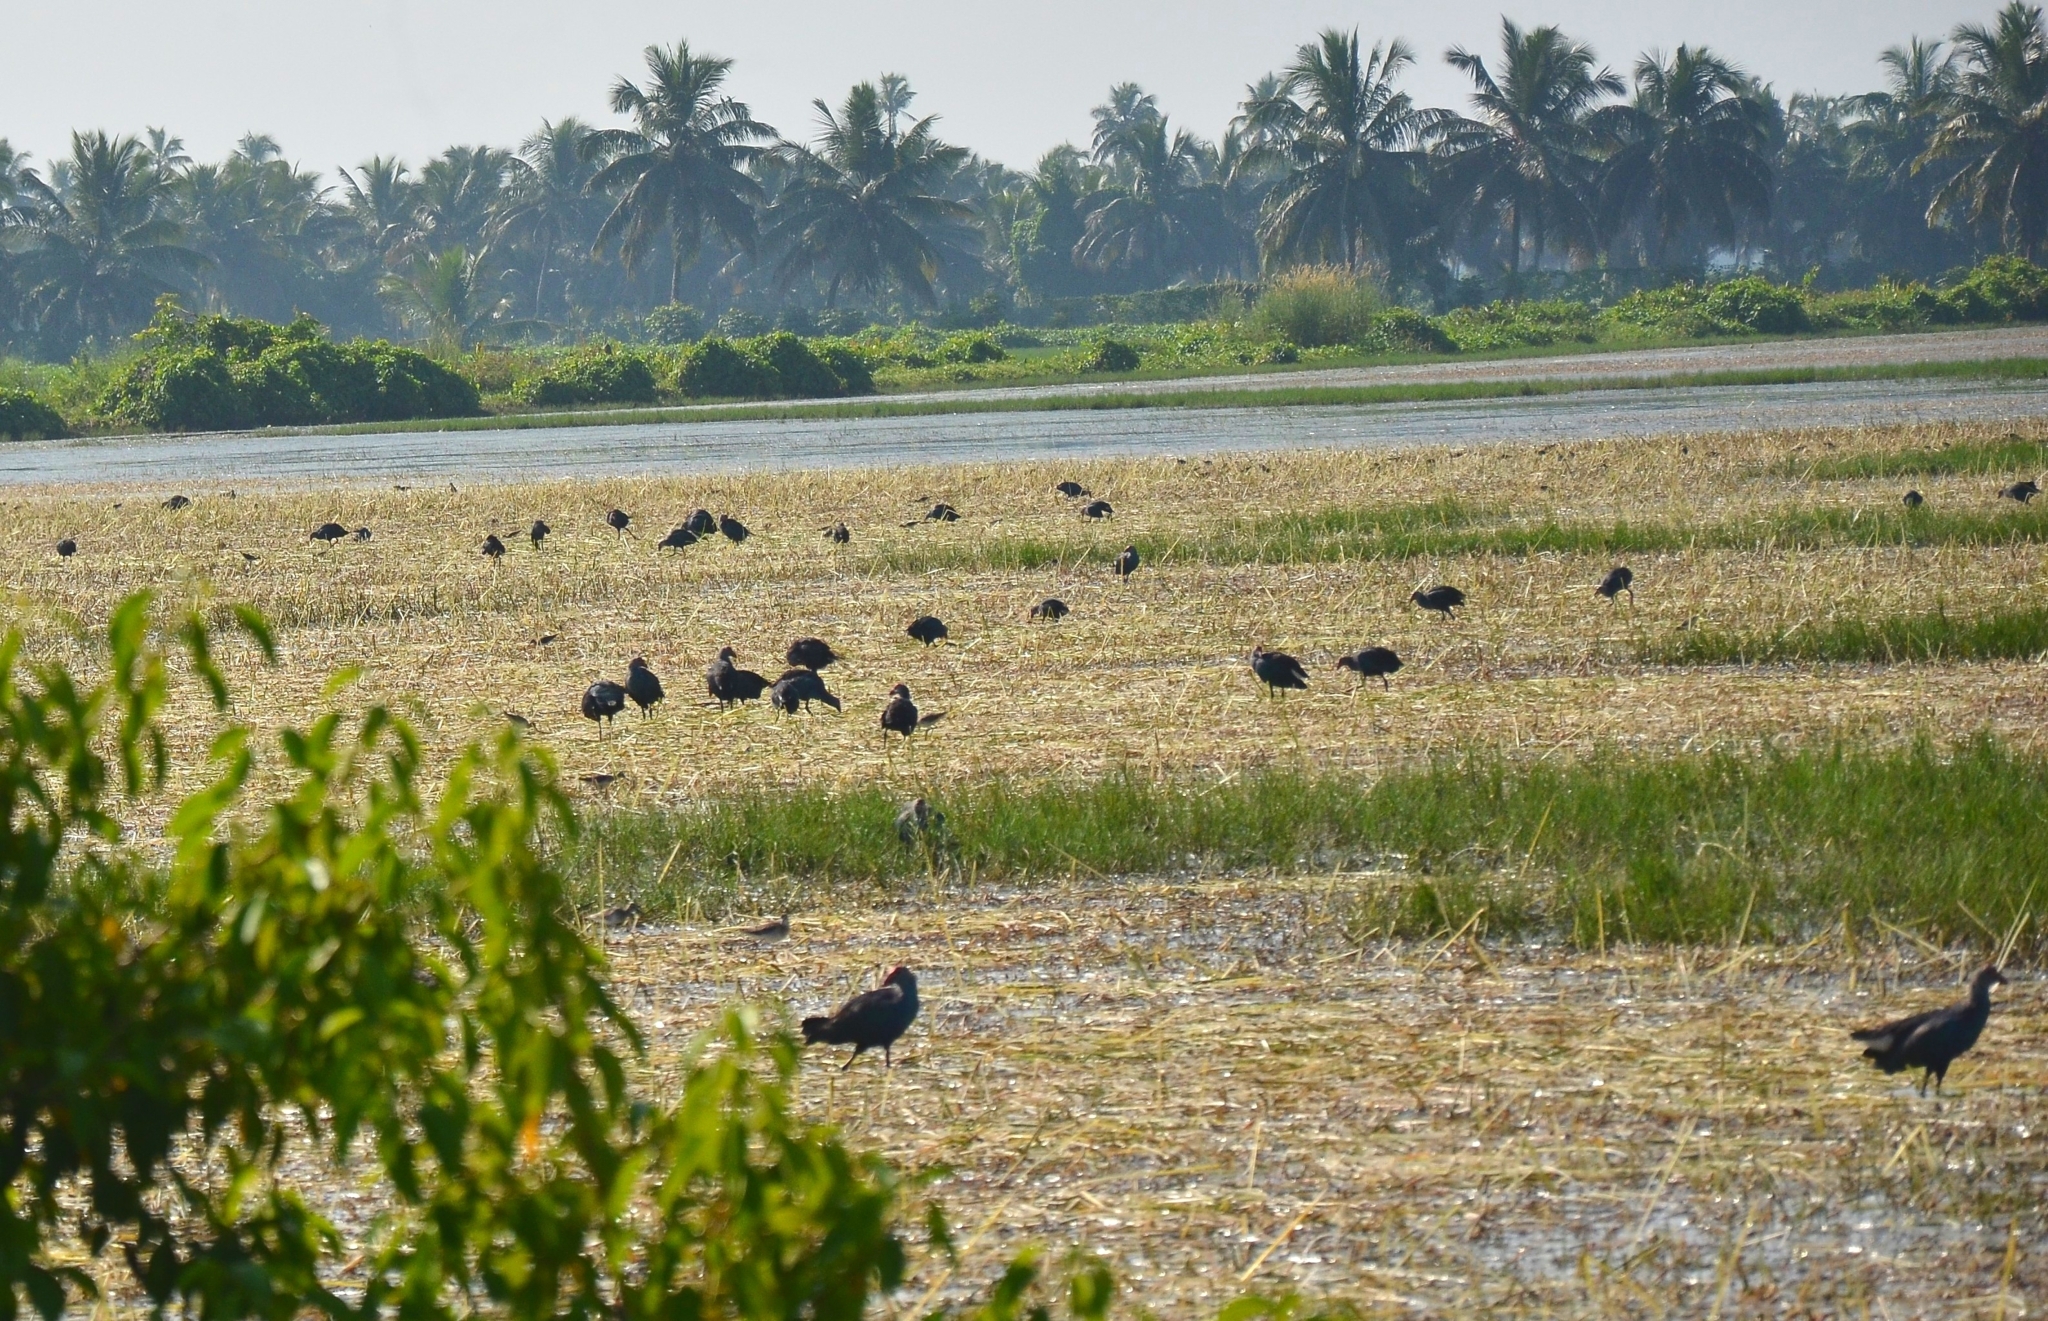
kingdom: Animalia
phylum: Chordata
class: Aves
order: Gruiformes
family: Rallidae
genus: Porphyrio
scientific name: Porphyrio porphyrio
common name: Purple swamphen
